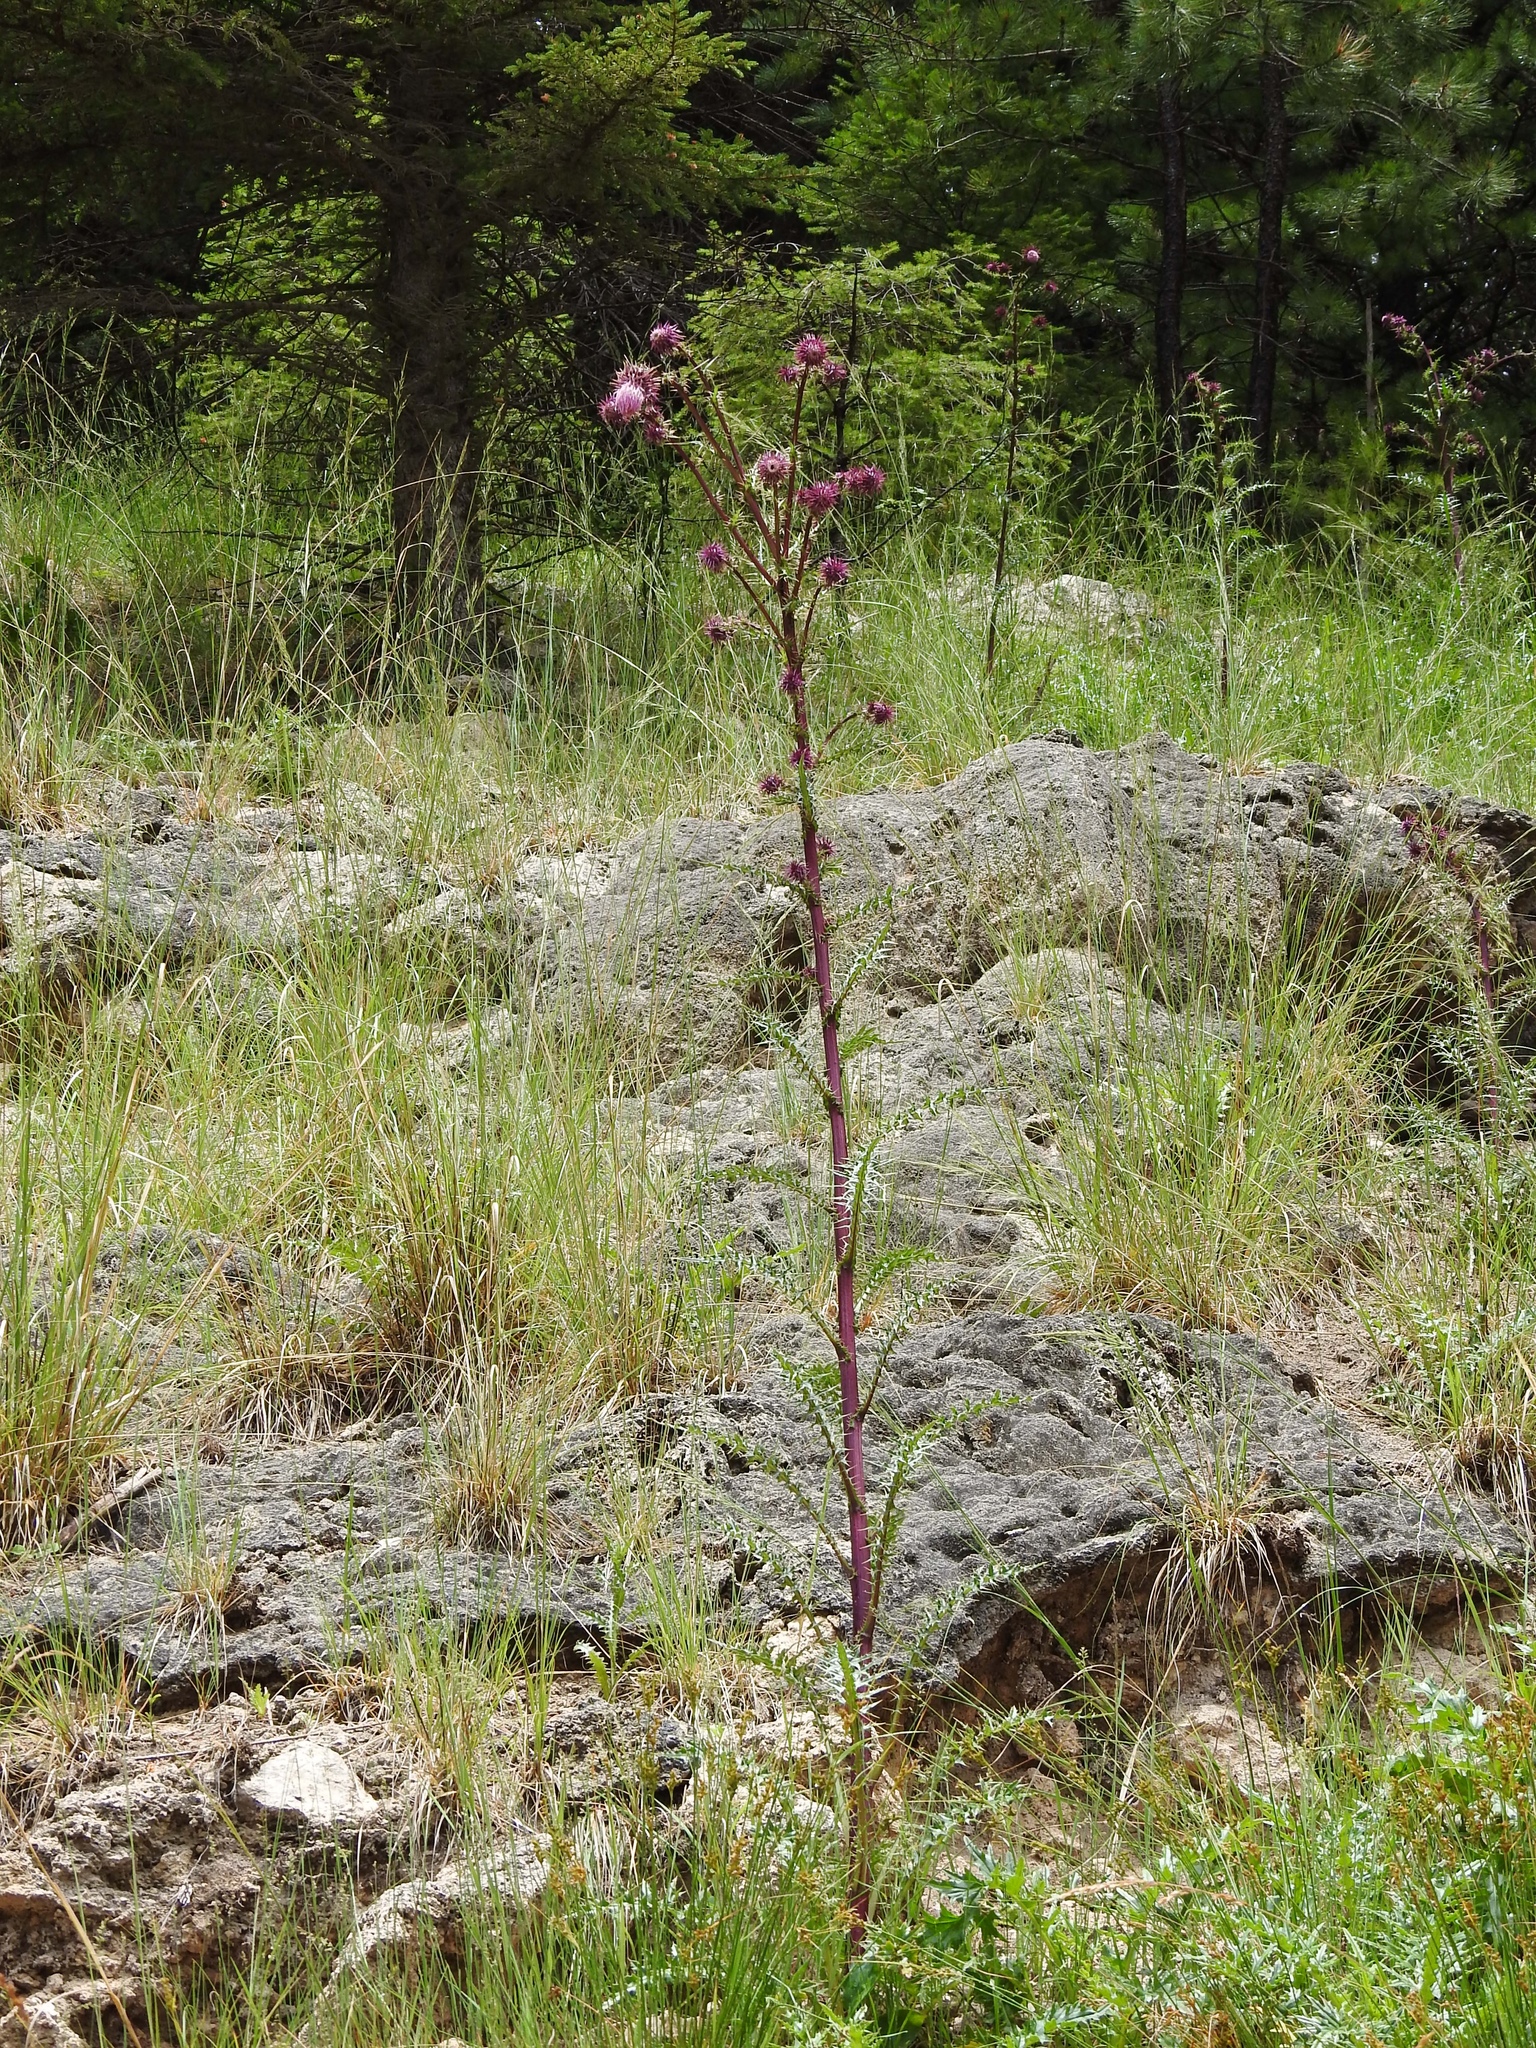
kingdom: Plantae
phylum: Tracheophyta
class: Magnoliopsida
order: Asterales
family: Asteraceae
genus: Cirsium
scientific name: Cirsium vinaceum
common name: Sacramento mountain thistle
